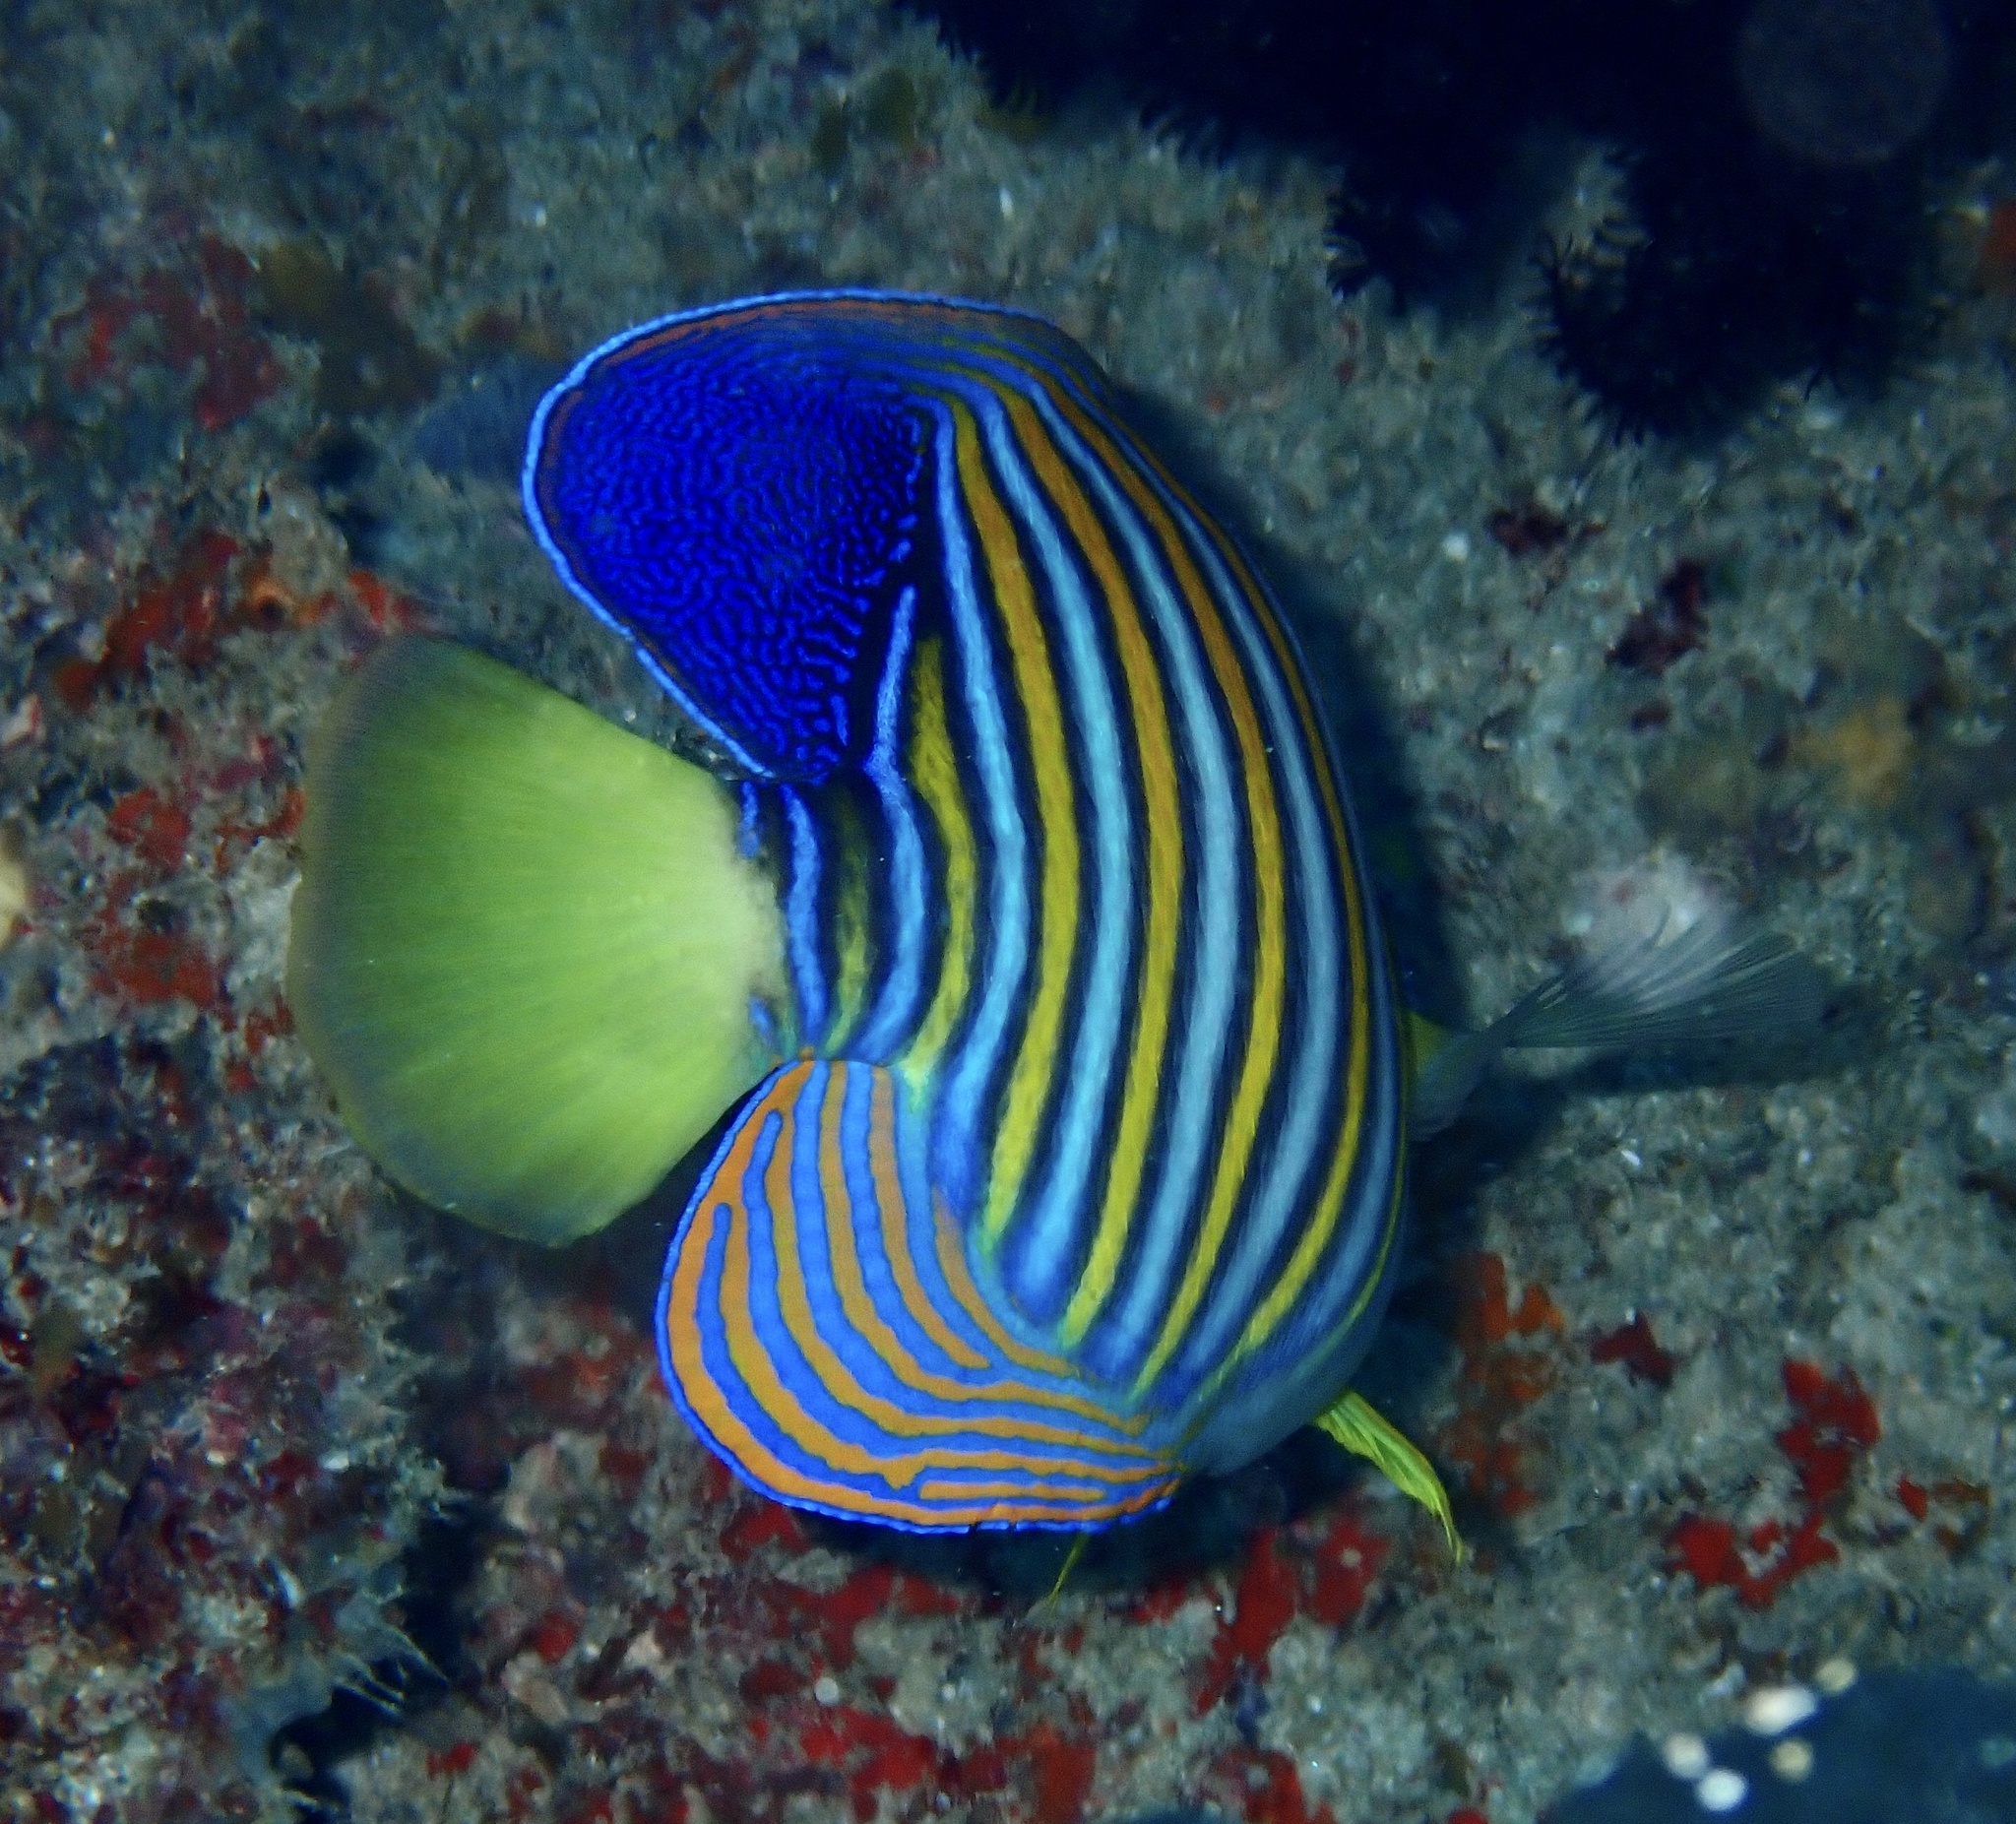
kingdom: Animalia
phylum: Chordata
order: Perciformes
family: Pomacanthidae
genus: Pygoplites
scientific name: Pygoplites diacanthus
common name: Regal angelfish
